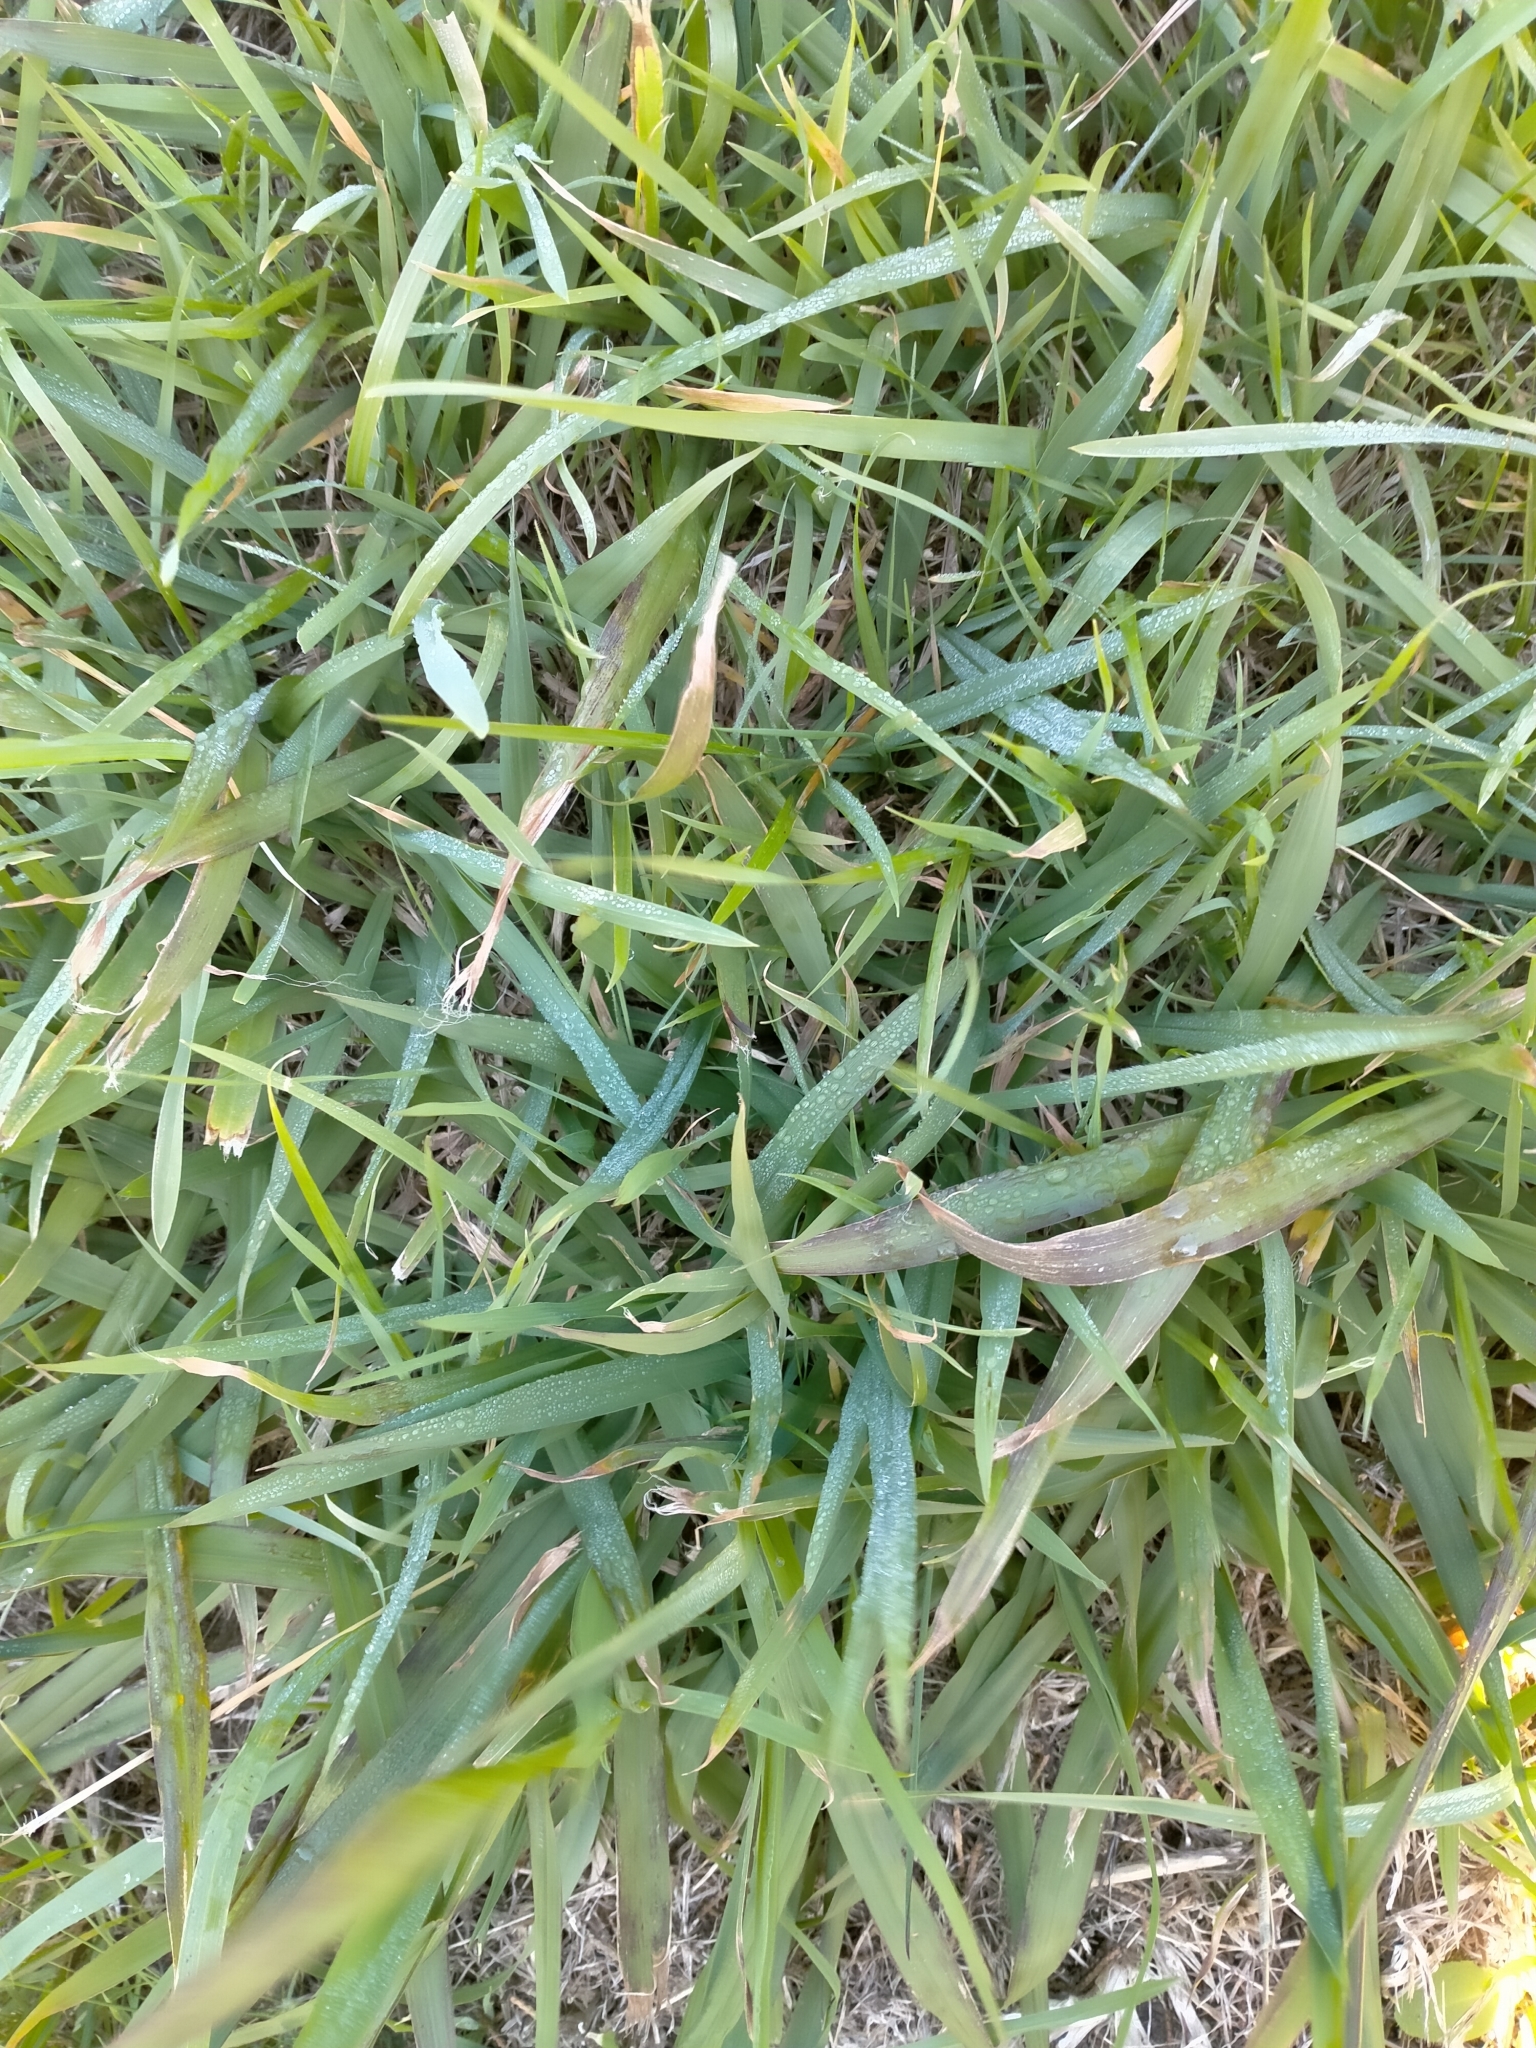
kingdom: Plantae
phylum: Tracheophyta
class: Liliopsida
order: Poales
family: Poaceae
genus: Paspalum
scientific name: Paspalum dilatatum
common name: Dallisgrass
